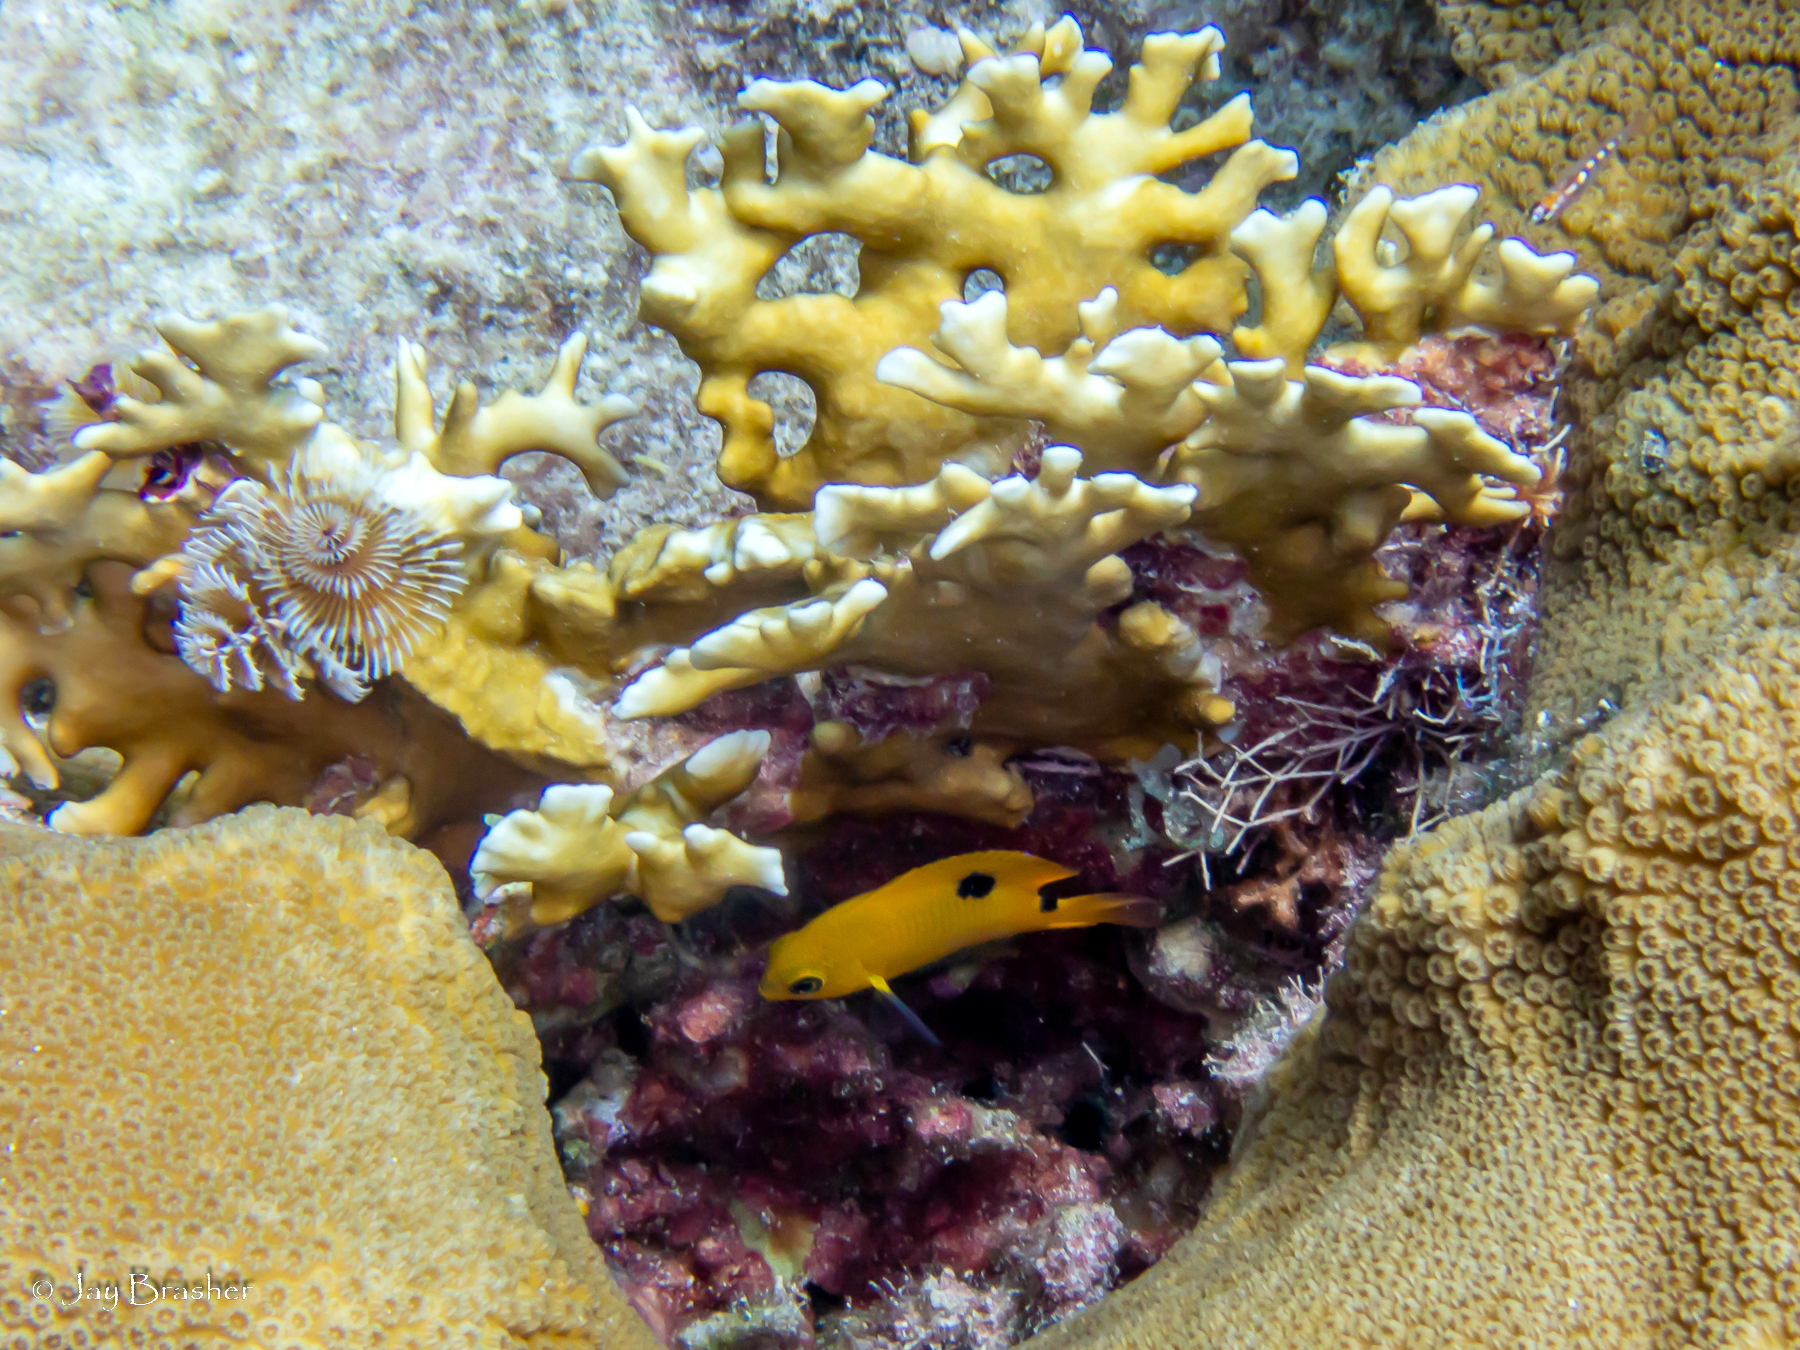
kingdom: Animalia
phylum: Chordata
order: Perciformes
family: Pomacentridae
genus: Stegastes
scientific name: Stegastes planifrons
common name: Threespot damselfish
